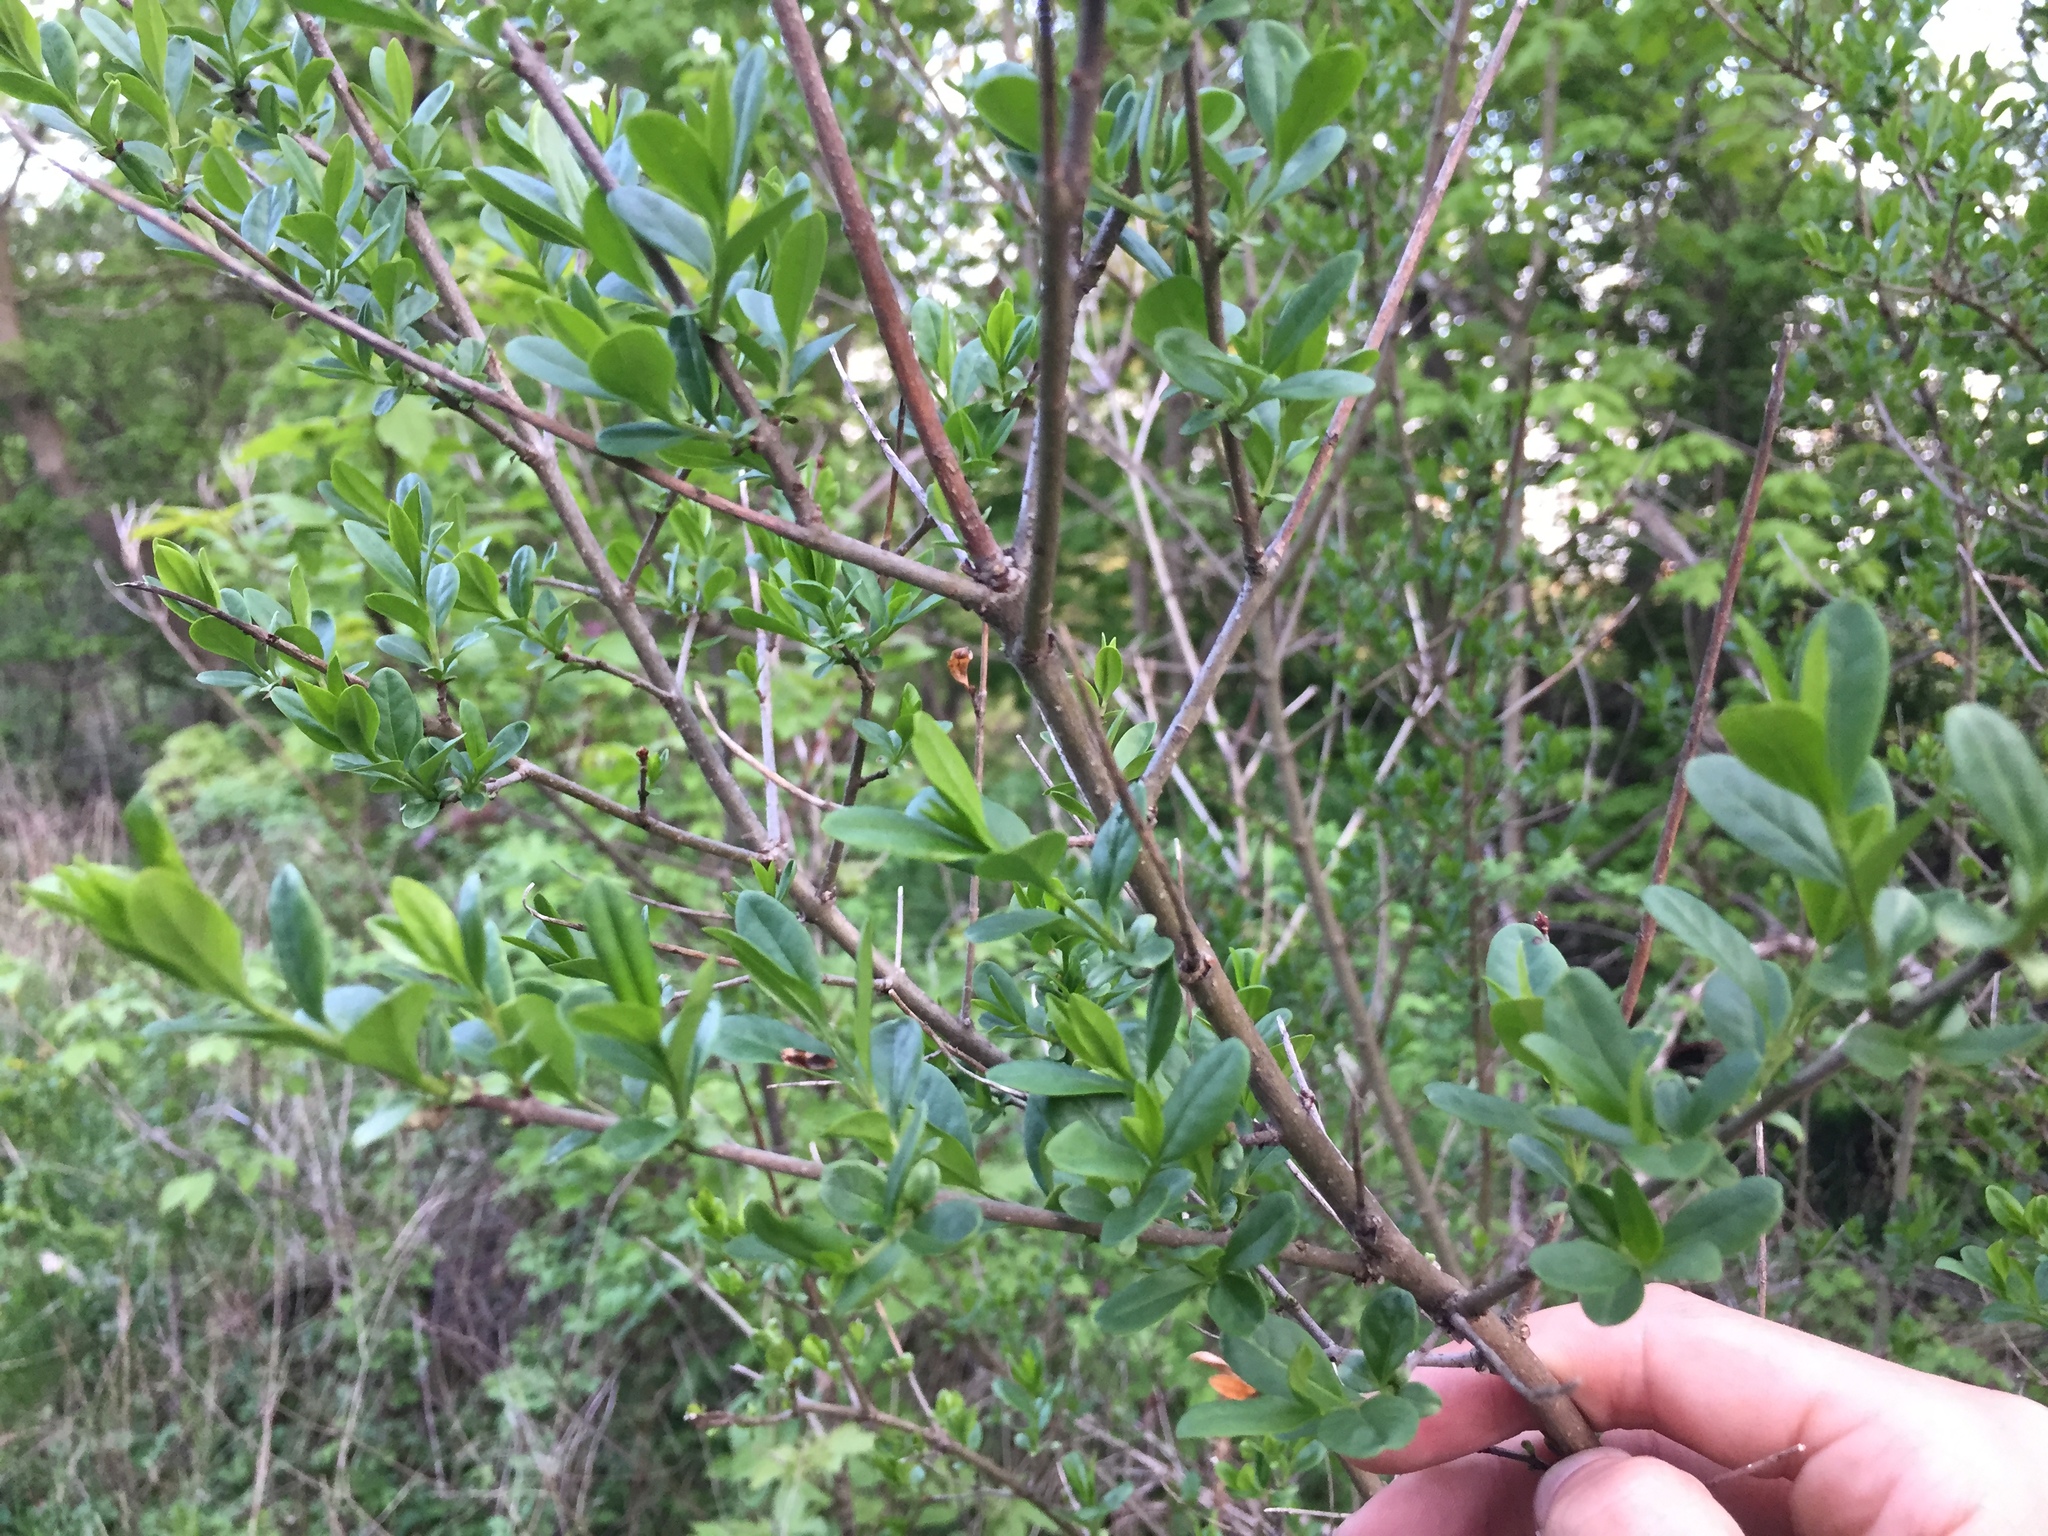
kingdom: Plantae
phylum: Tracheophyta
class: Magnoliopsida
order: Lamiales
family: Oleaceae
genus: Ligustrum
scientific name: Ligustrum vulgare
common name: Wild privet
